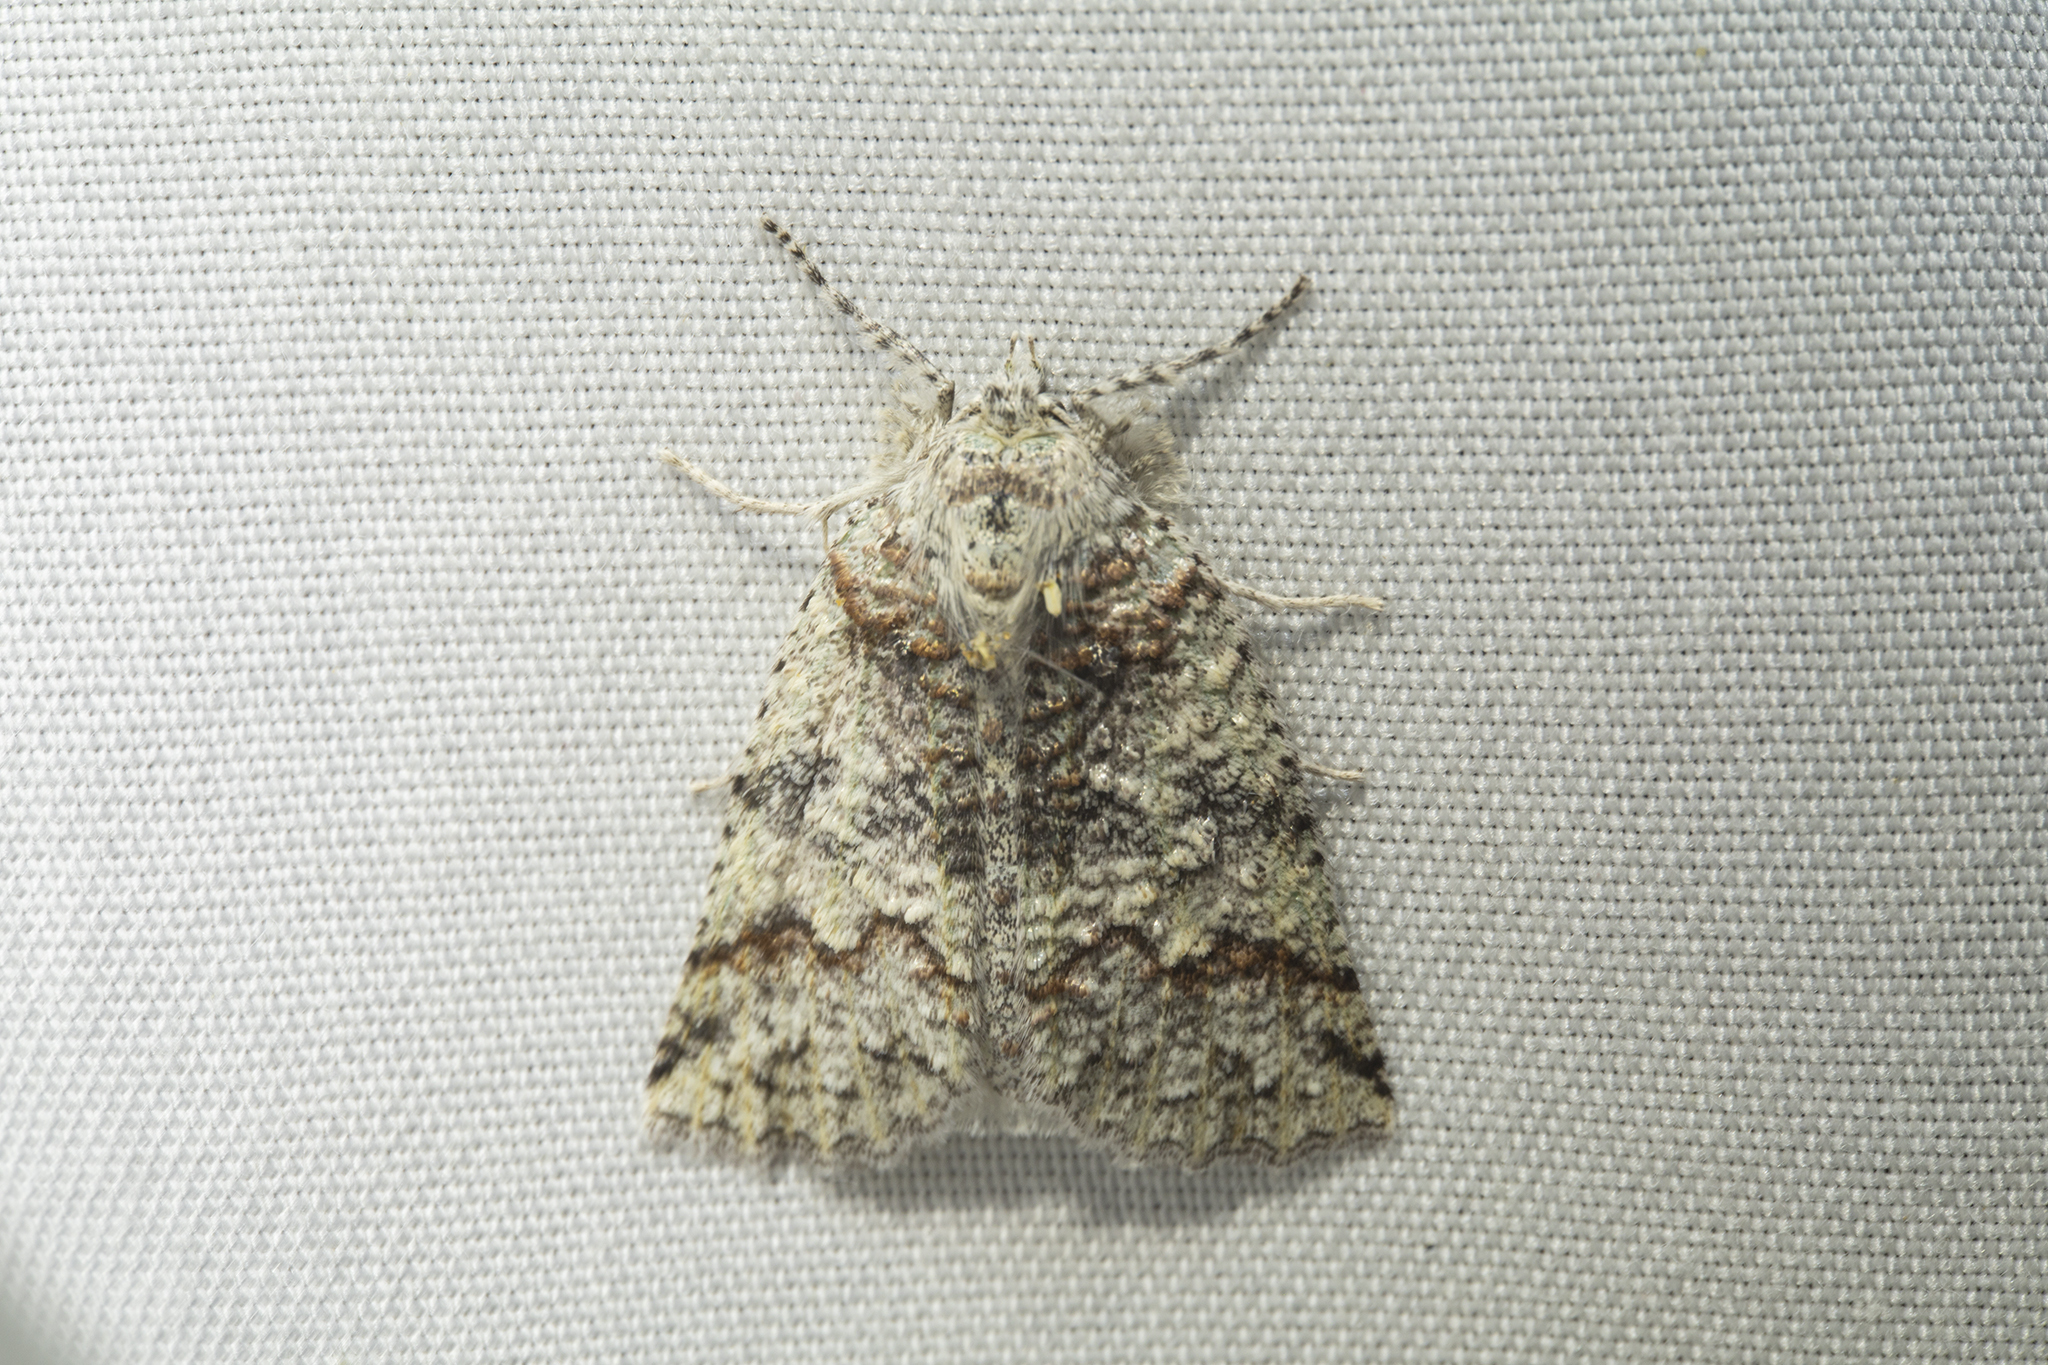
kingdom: Animalia
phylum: Arthropoda
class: Insecta
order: Lepidoptera
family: Geometridae
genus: Declana
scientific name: Declana floccosa
